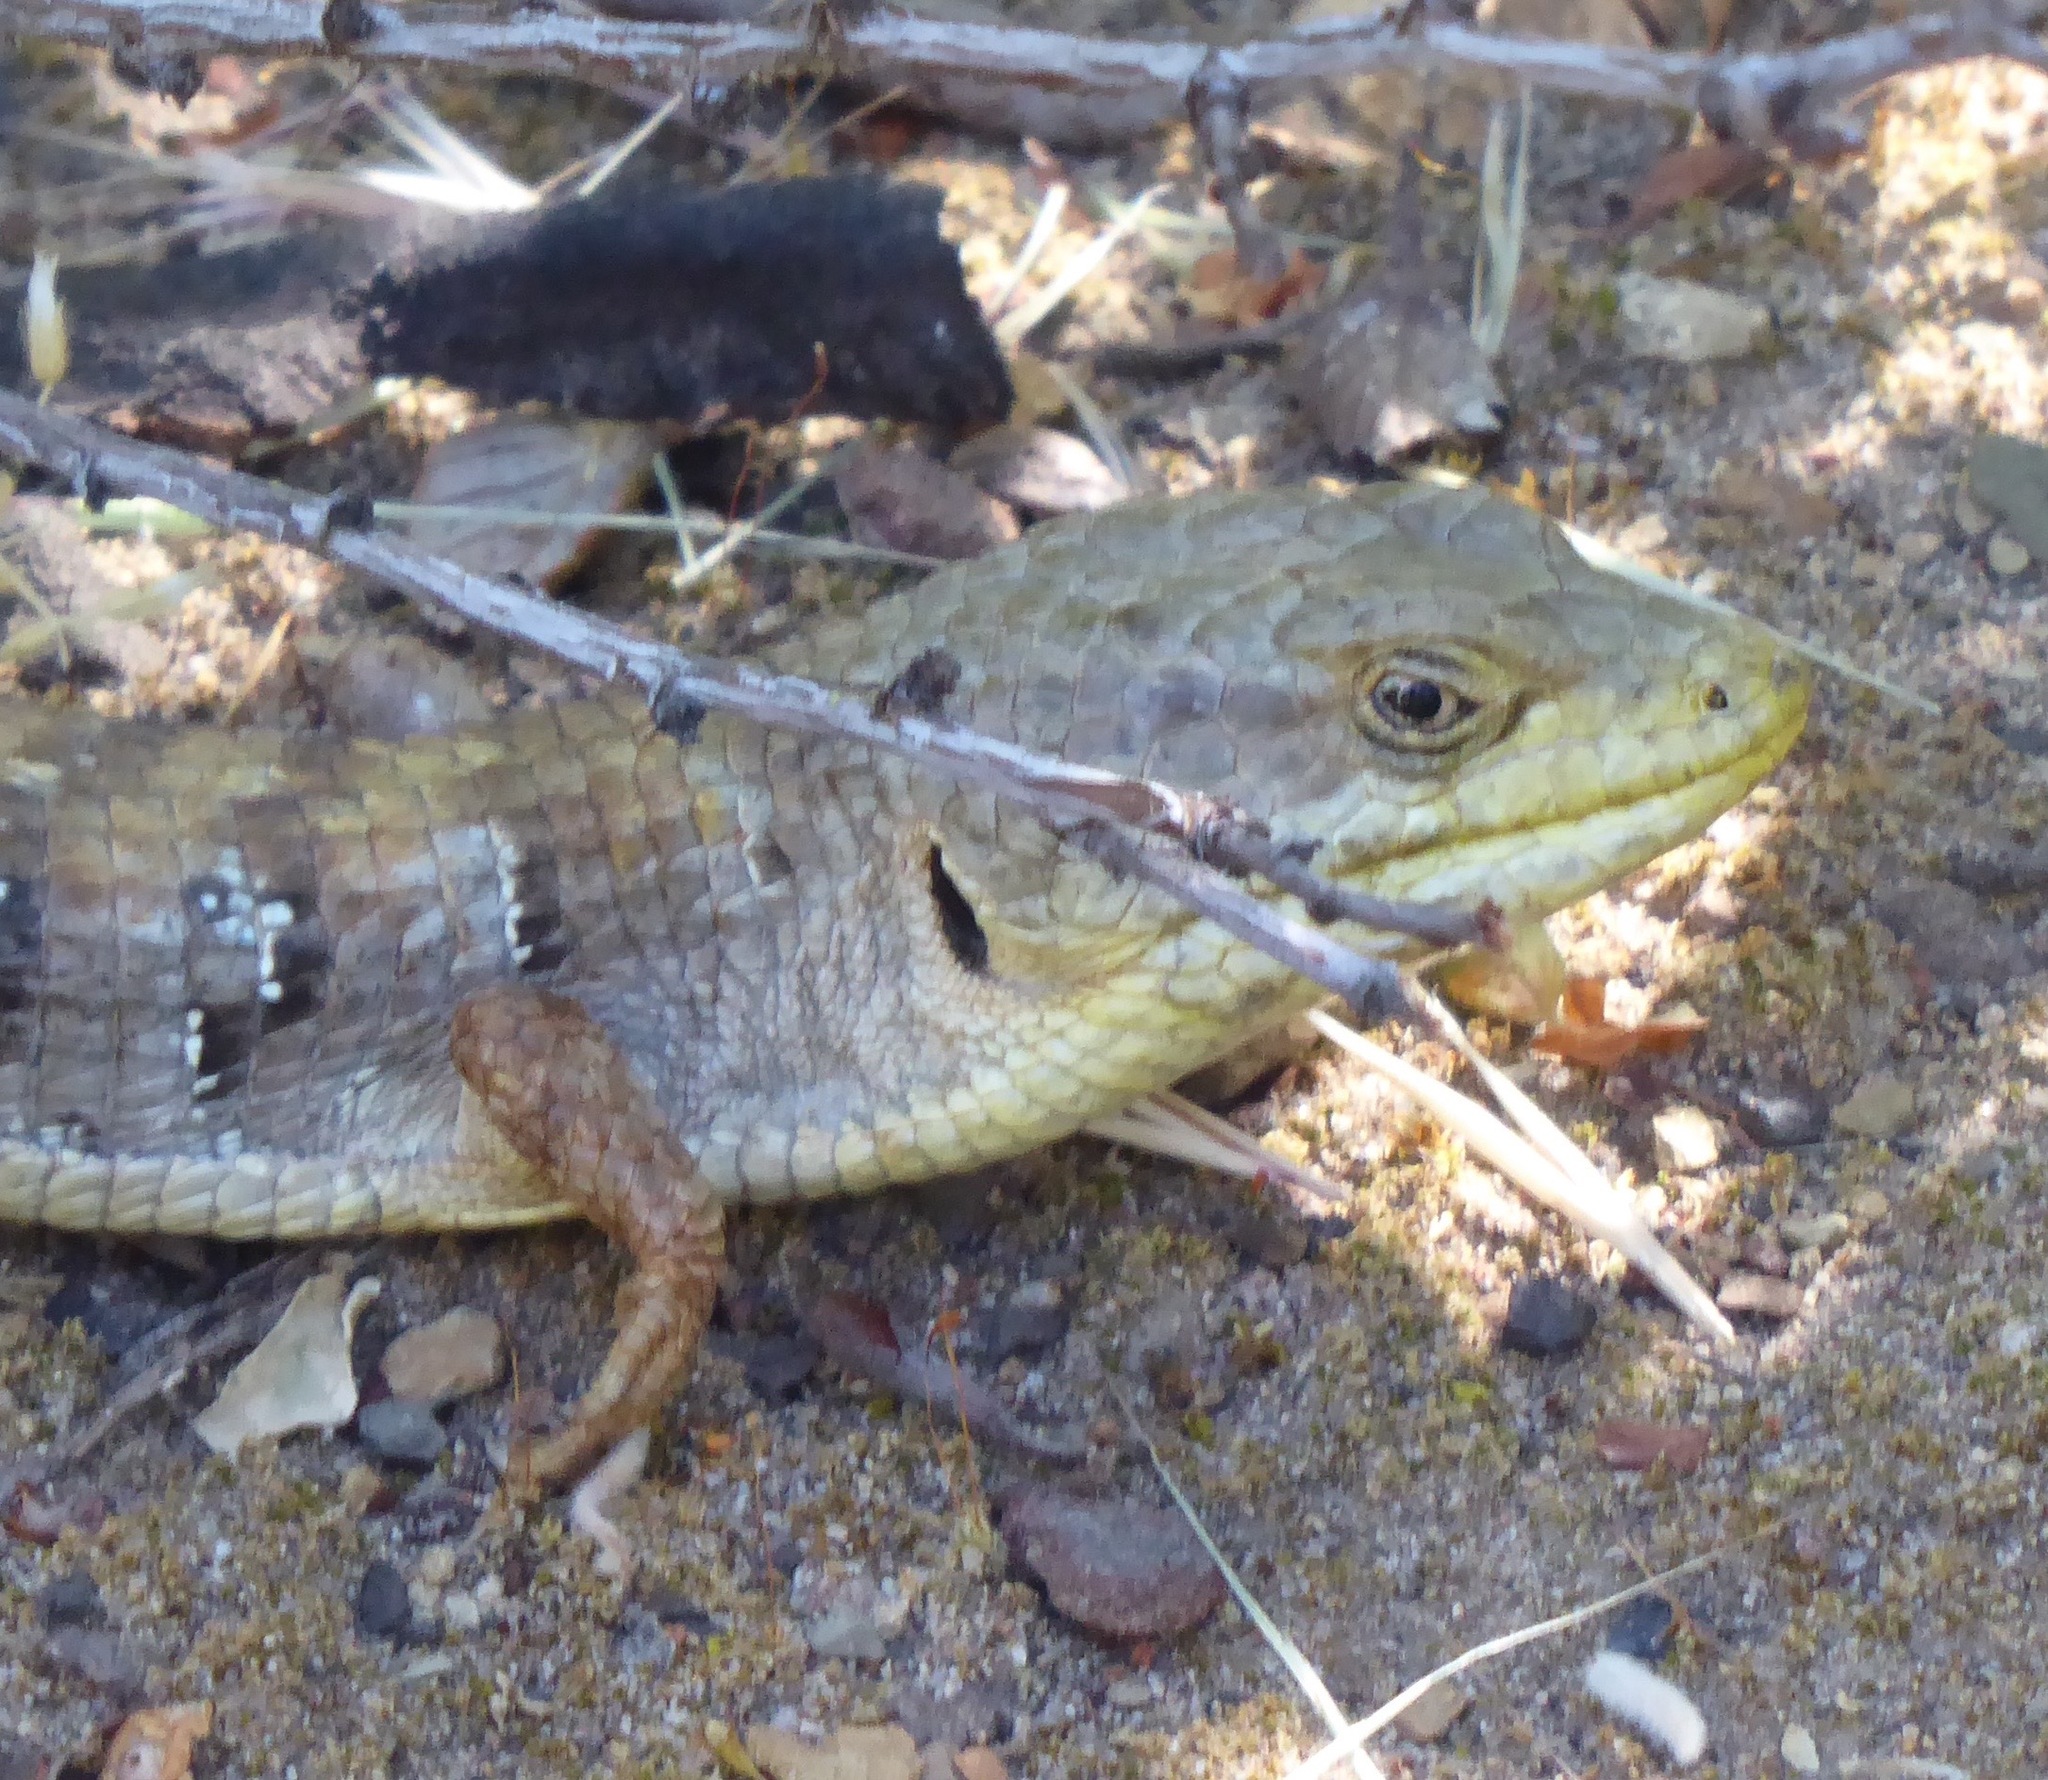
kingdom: Animalia
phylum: Chordata
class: Squamata
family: Anguidae
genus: Elgaria
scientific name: Elgaria multicarinata
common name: Southern alligator lizard
